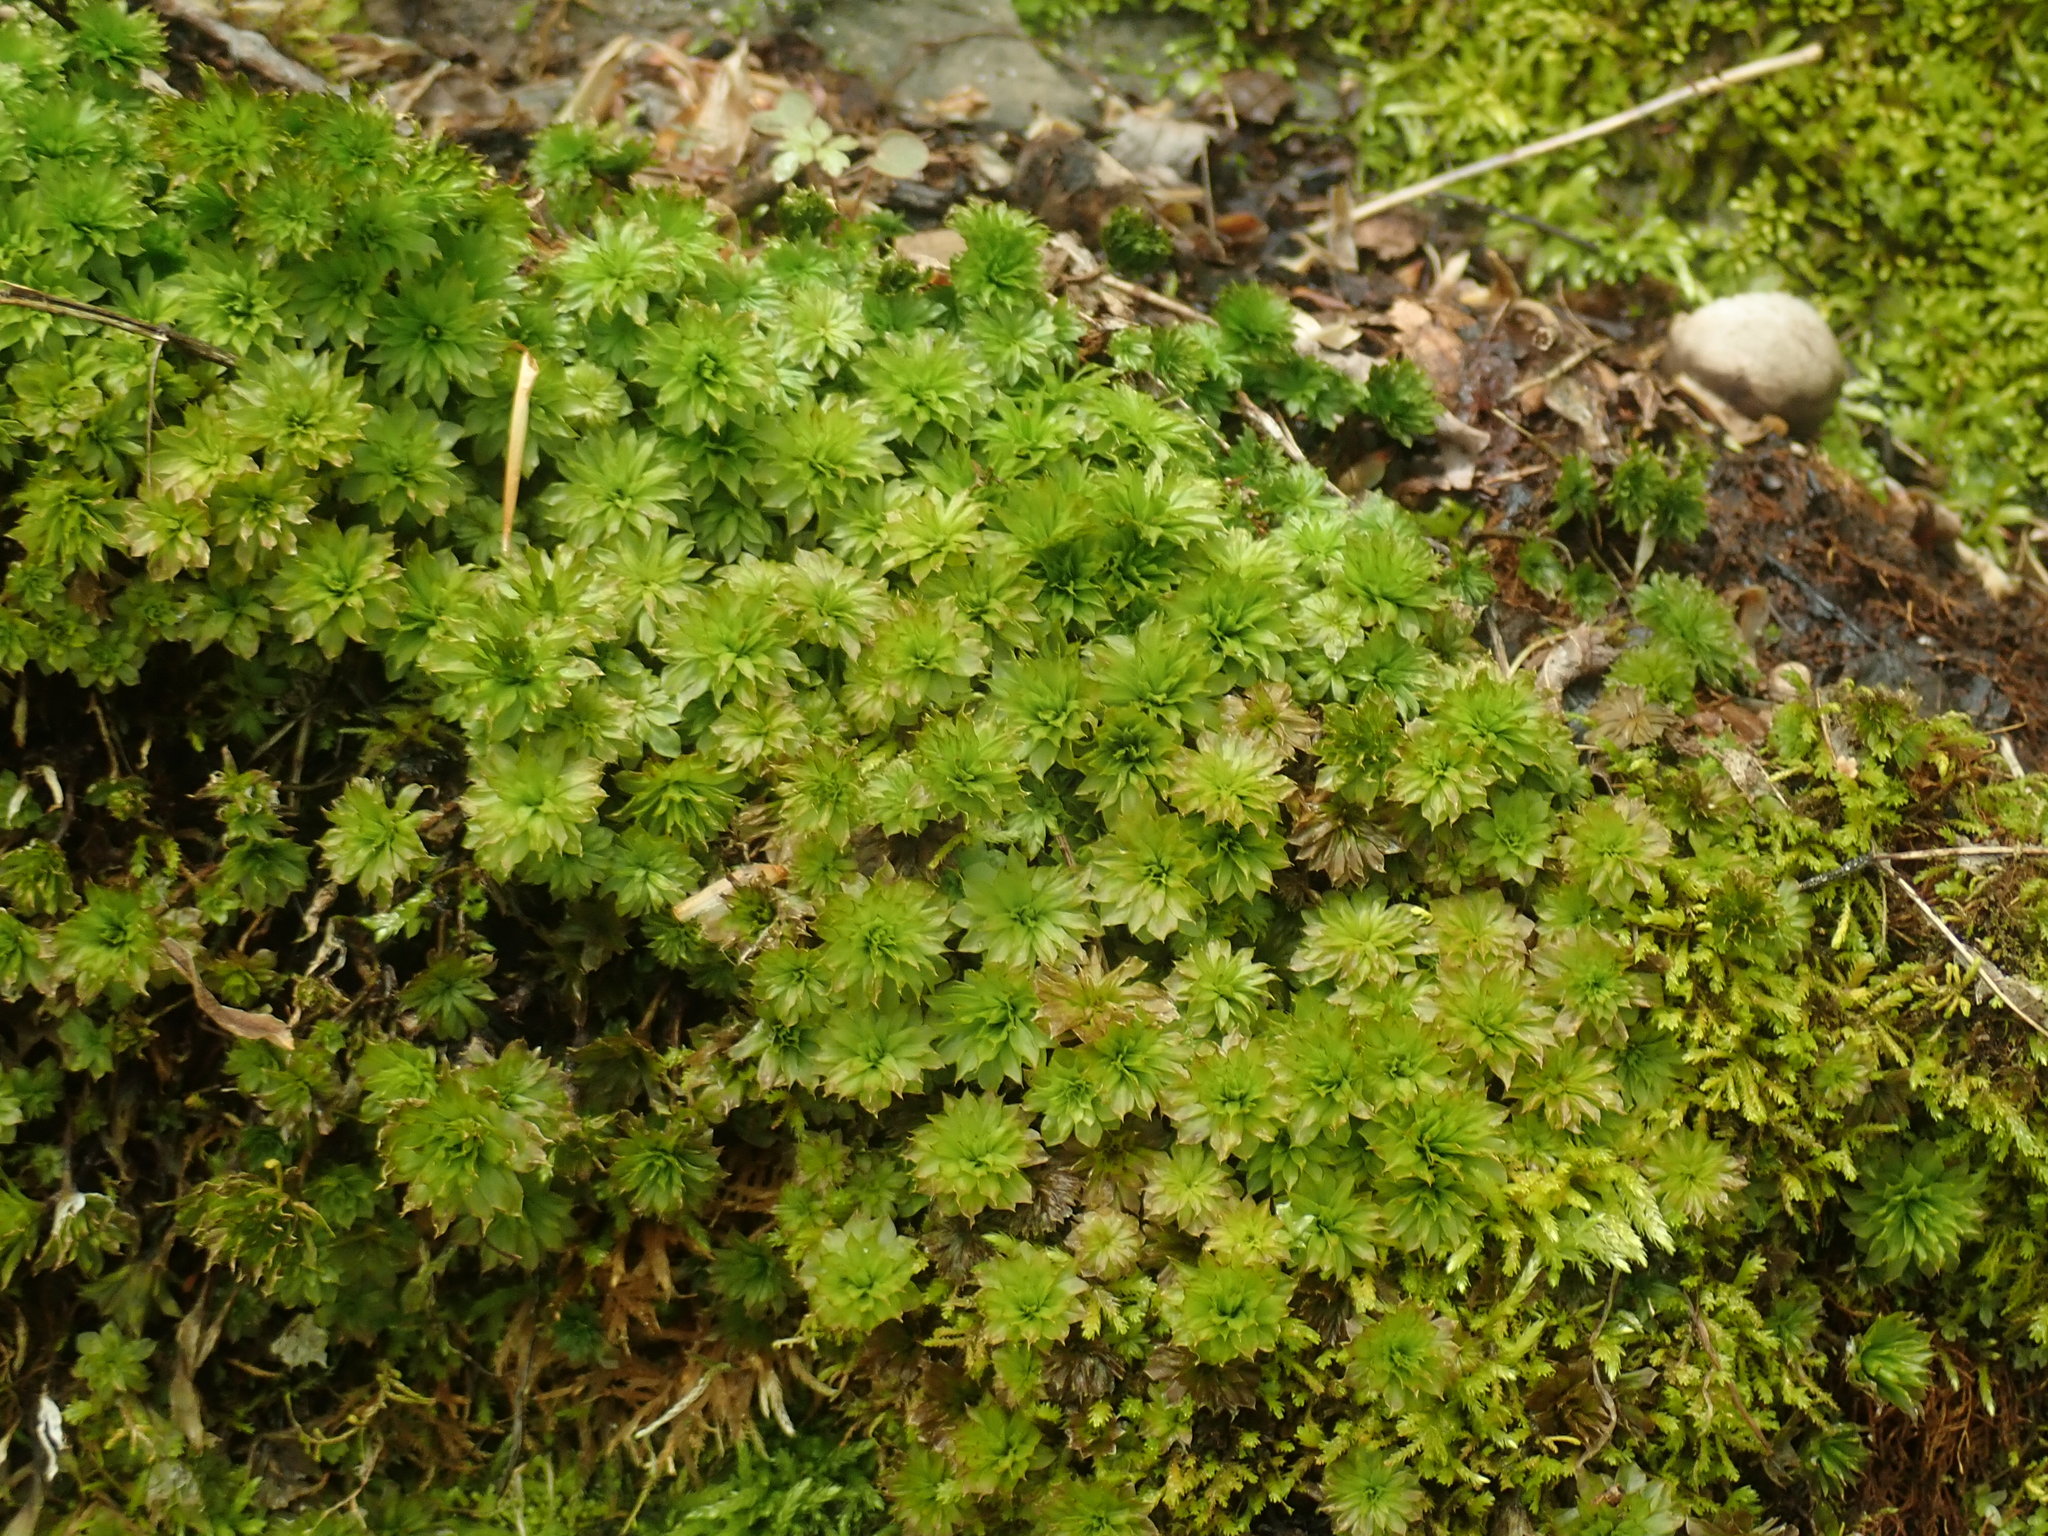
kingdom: Plantae
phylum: Bryophyta
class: Bryopsida
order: Bryales
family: Bryaceae
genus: Rhodobryum
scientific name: Rhodobryum ontariense
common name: Ontario rhodobryum moss
